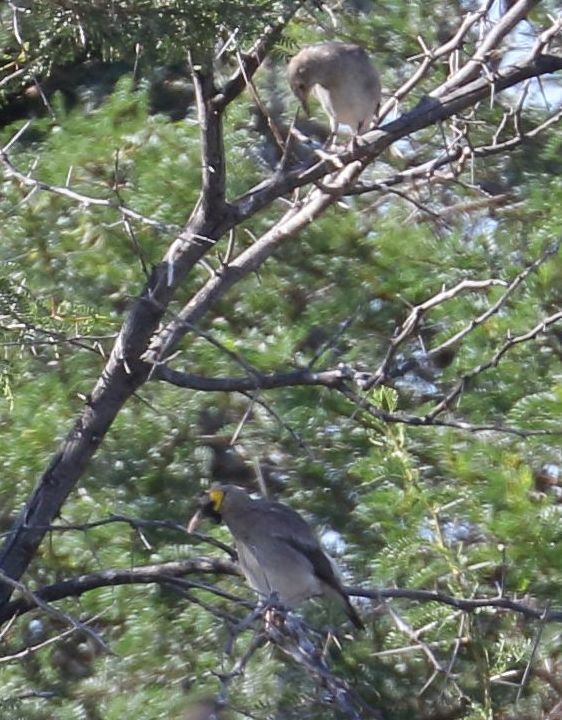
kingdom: Animalia
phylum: Chordata
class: Aves
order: Passeriformes
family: Sturnidae
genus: Creatophora
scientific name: Creatophora cinerea
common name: Wattled starling
